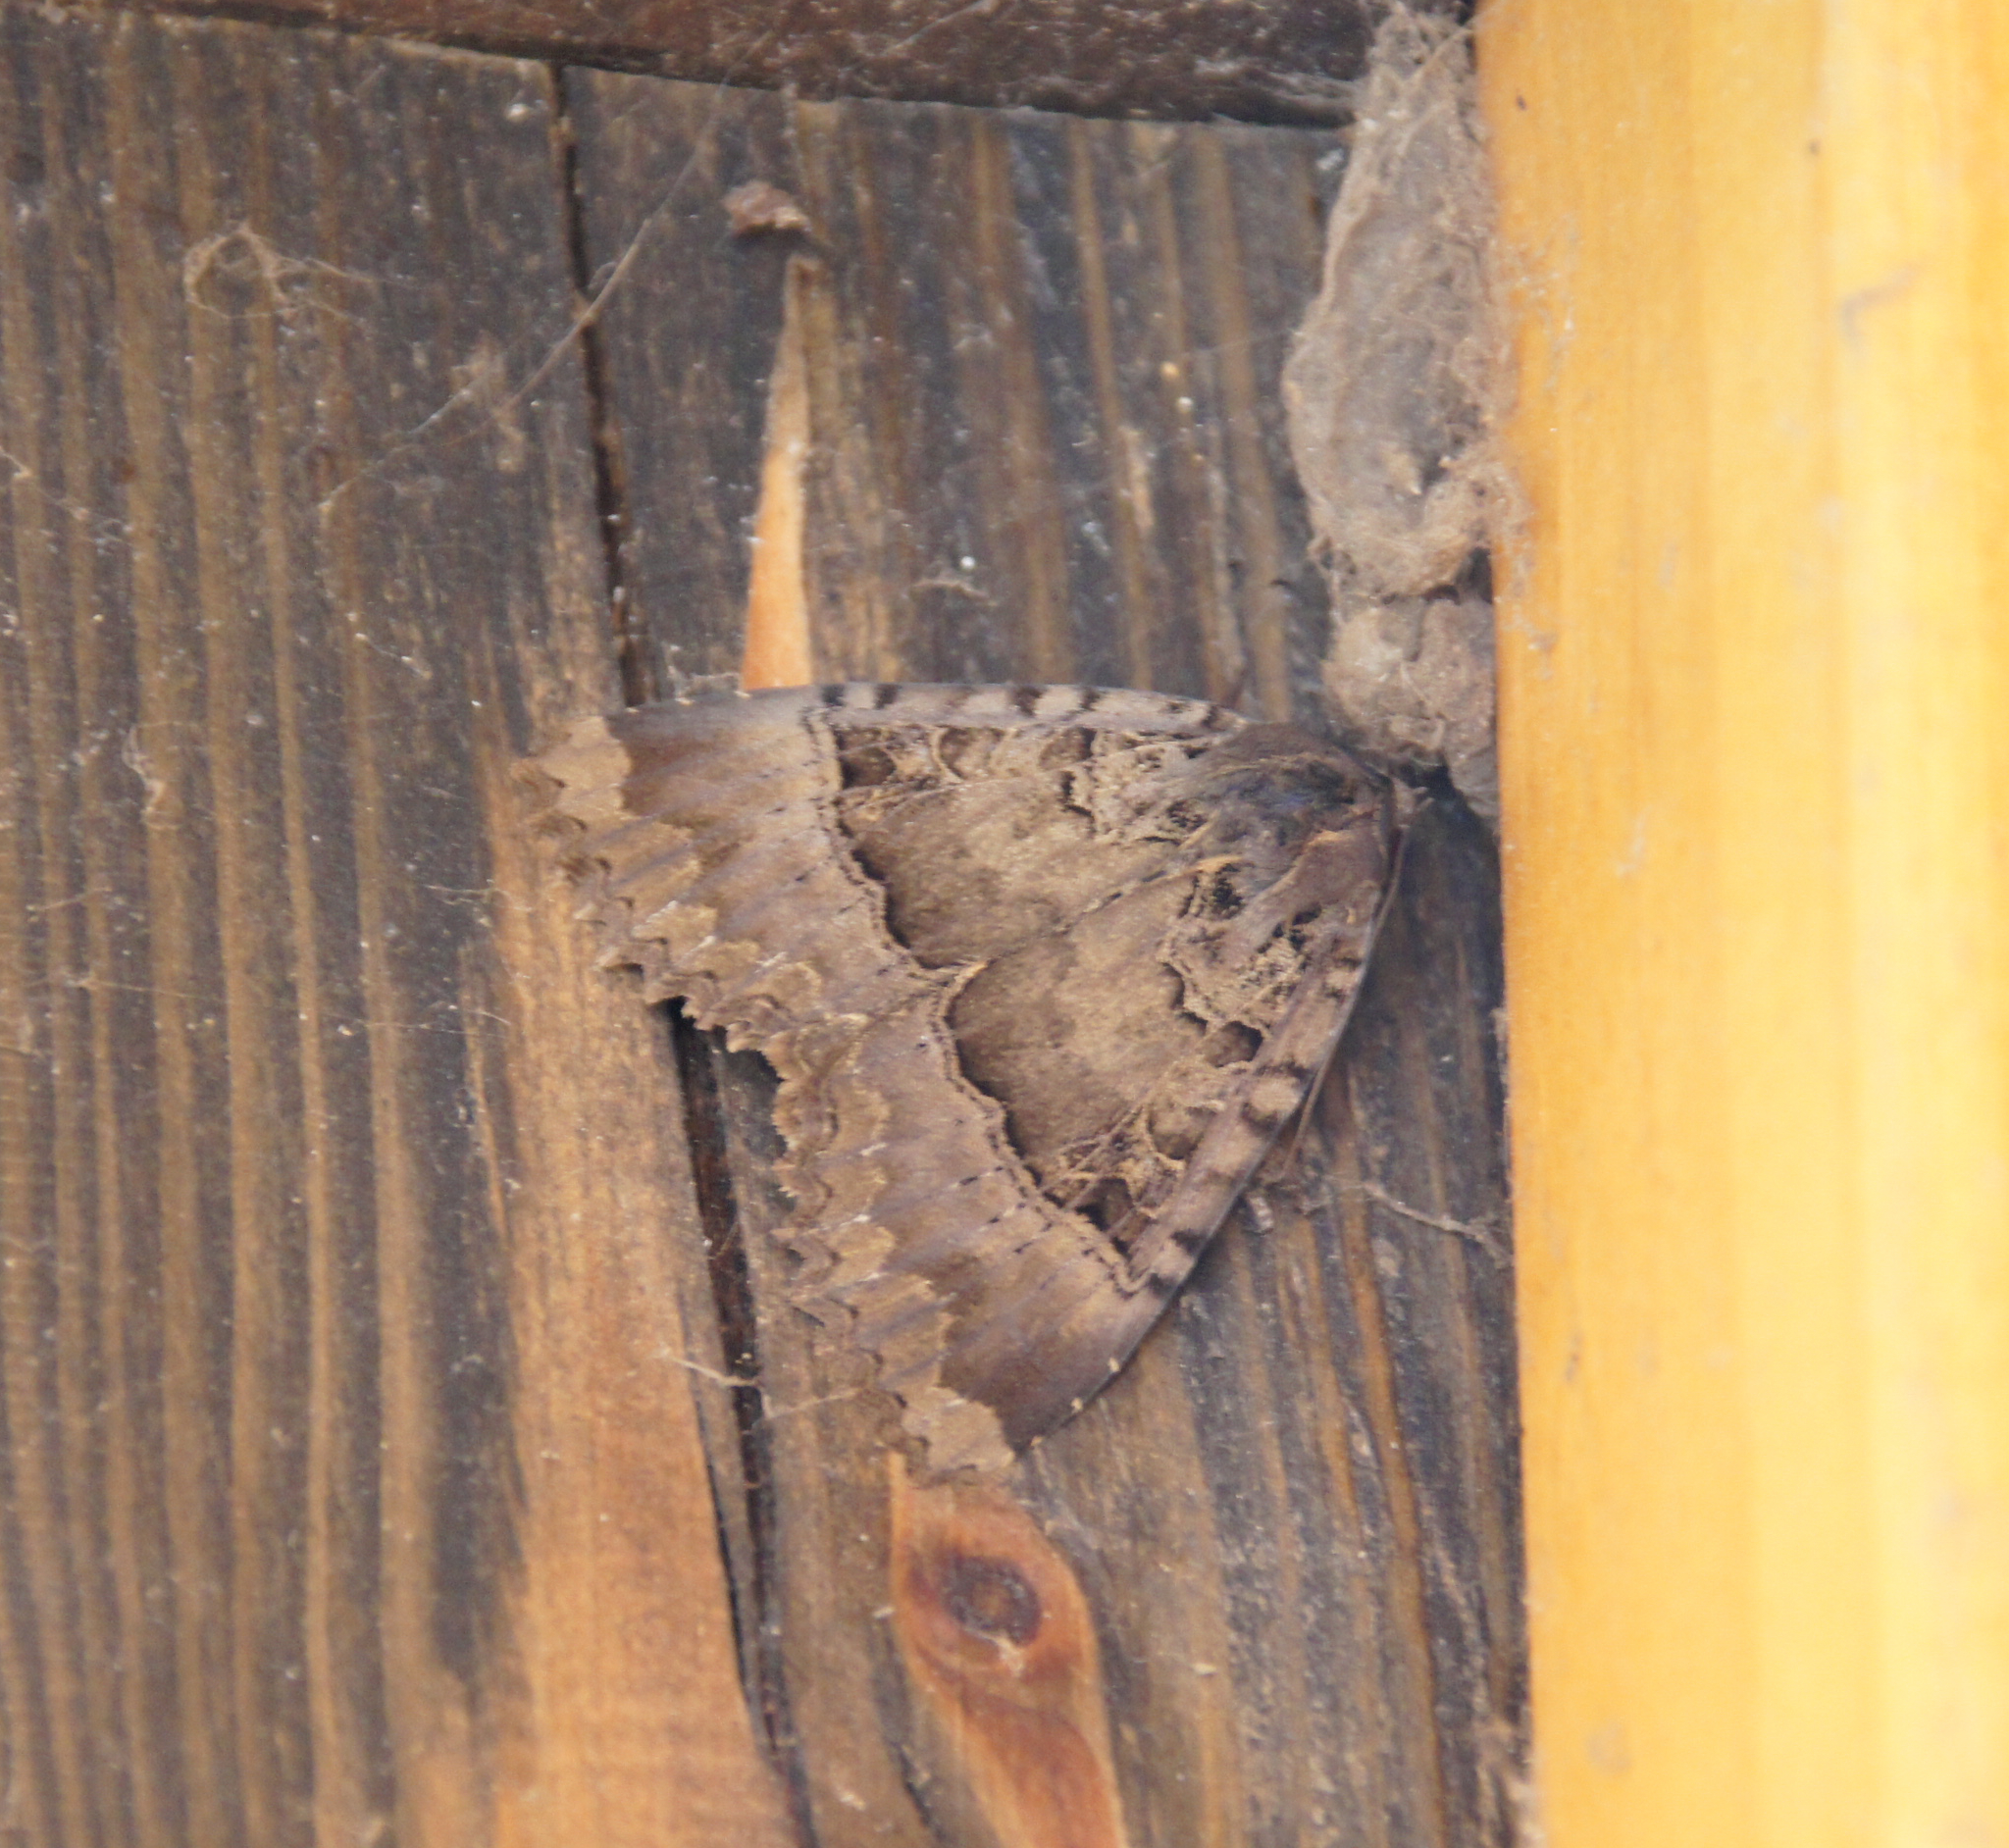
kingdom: Animalia
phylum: Arthropoda
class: Insecta
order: Lepidoptera
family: Noctuidae
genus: Mormo
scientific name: Mormo maura
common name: Old lady
